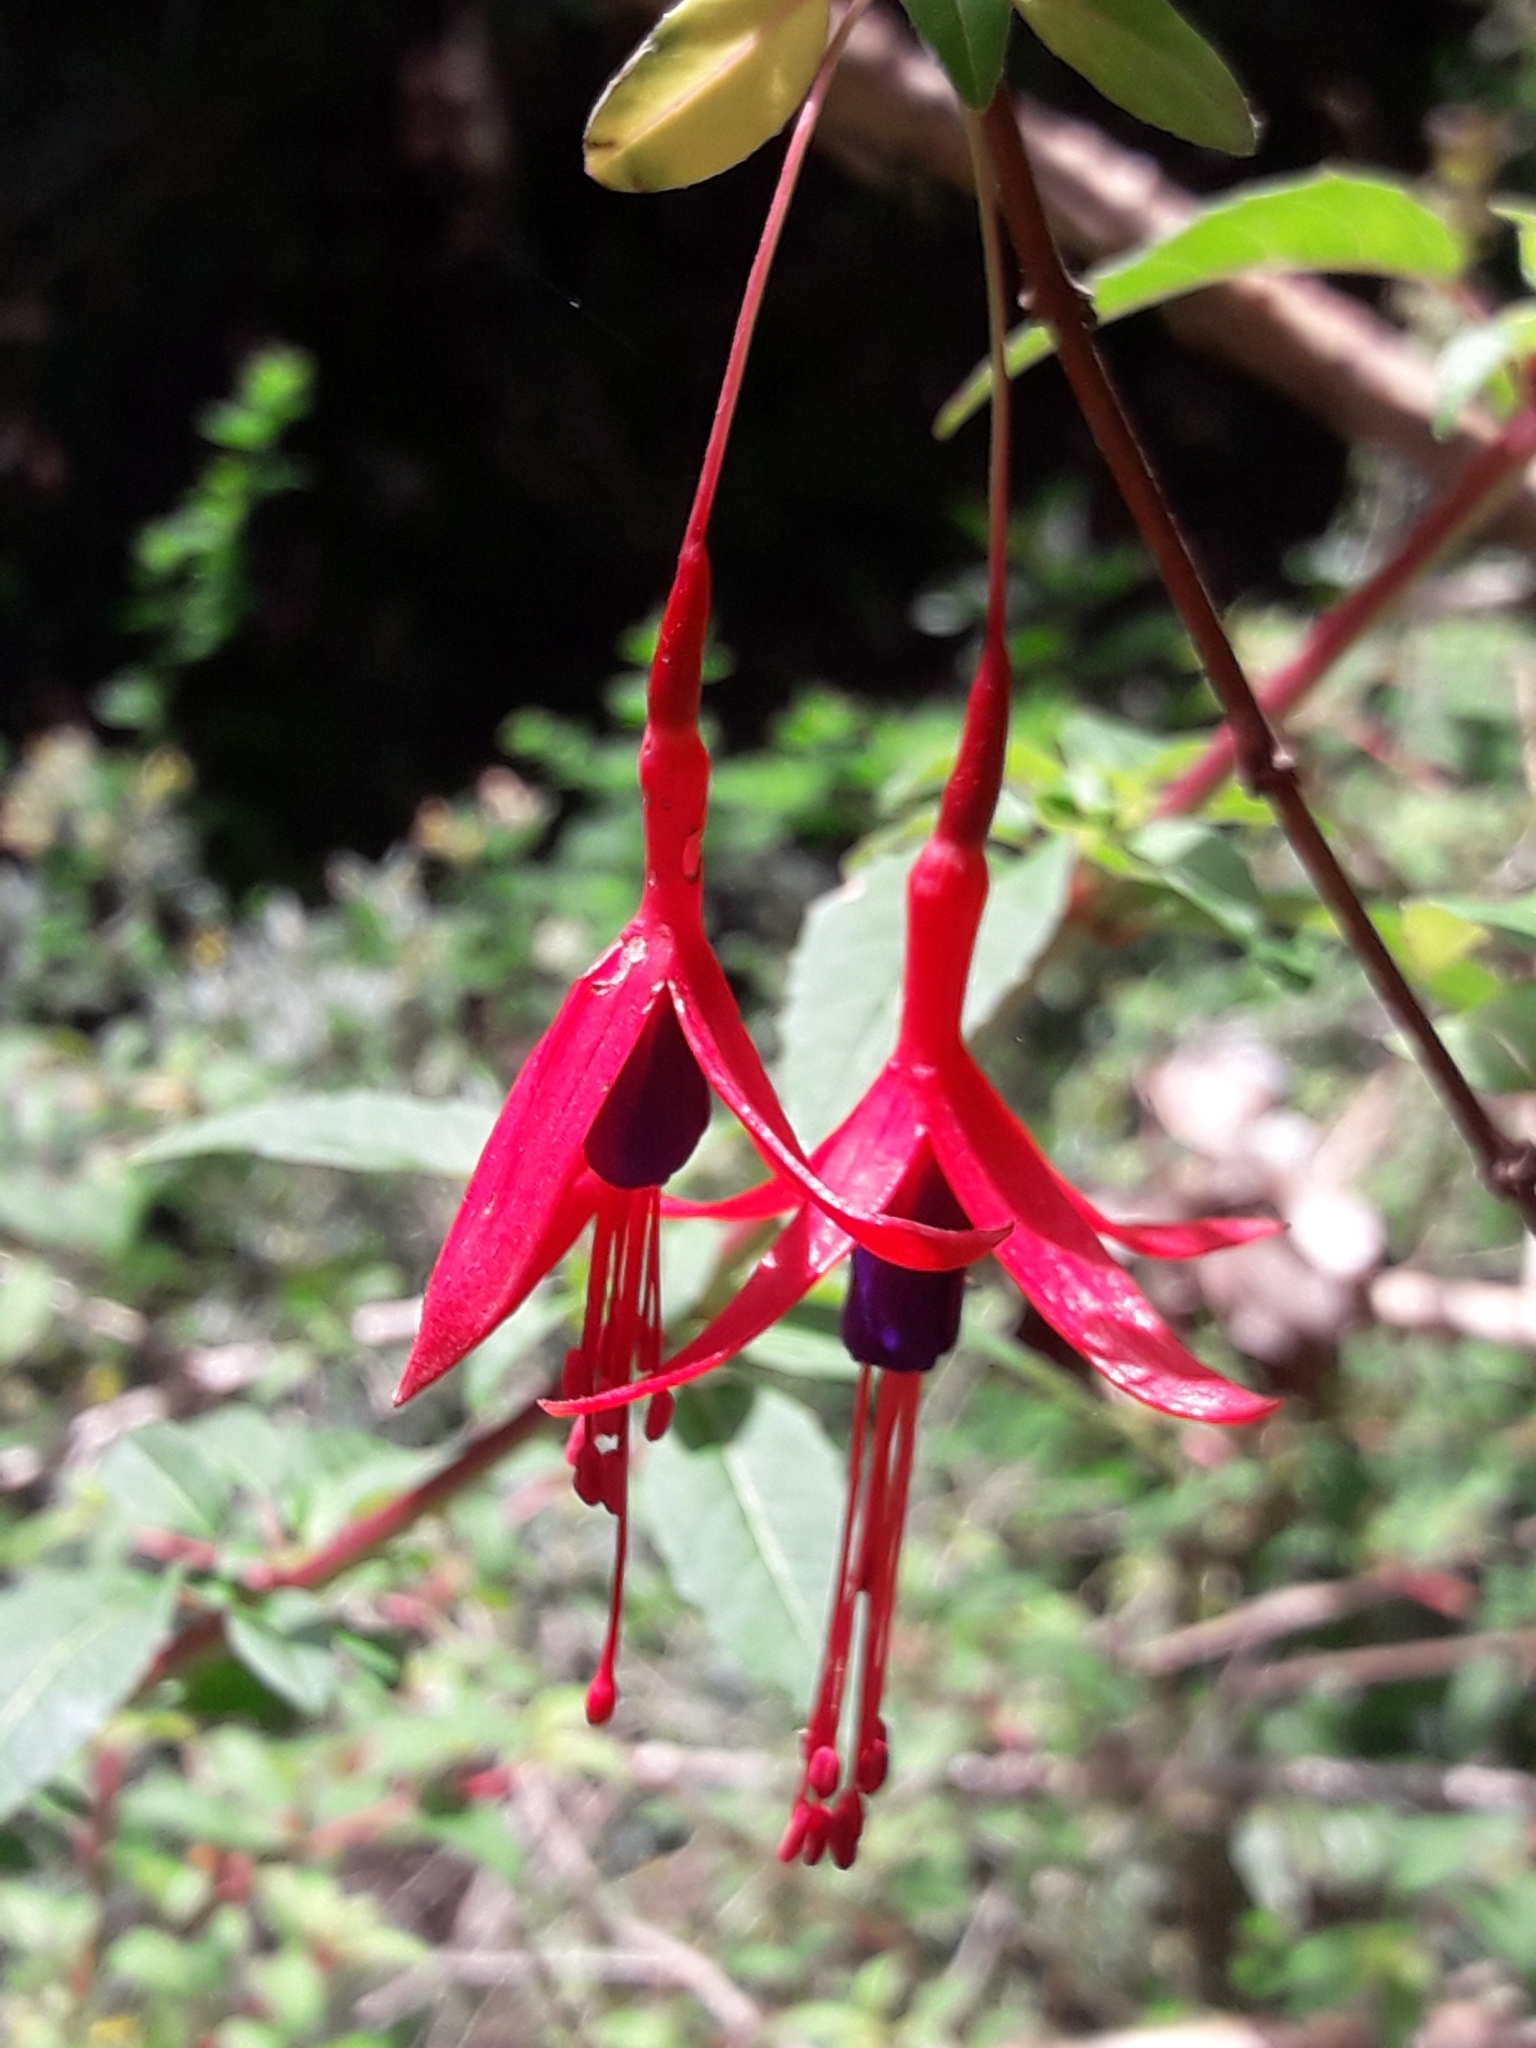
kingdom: Plantae
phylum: Tracheophyta
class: Magnoliopsida
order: Myrtales
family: Onagraceae
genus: Fuchsia
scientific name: Fuchsia magellanica
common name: Hardy fuchsia
